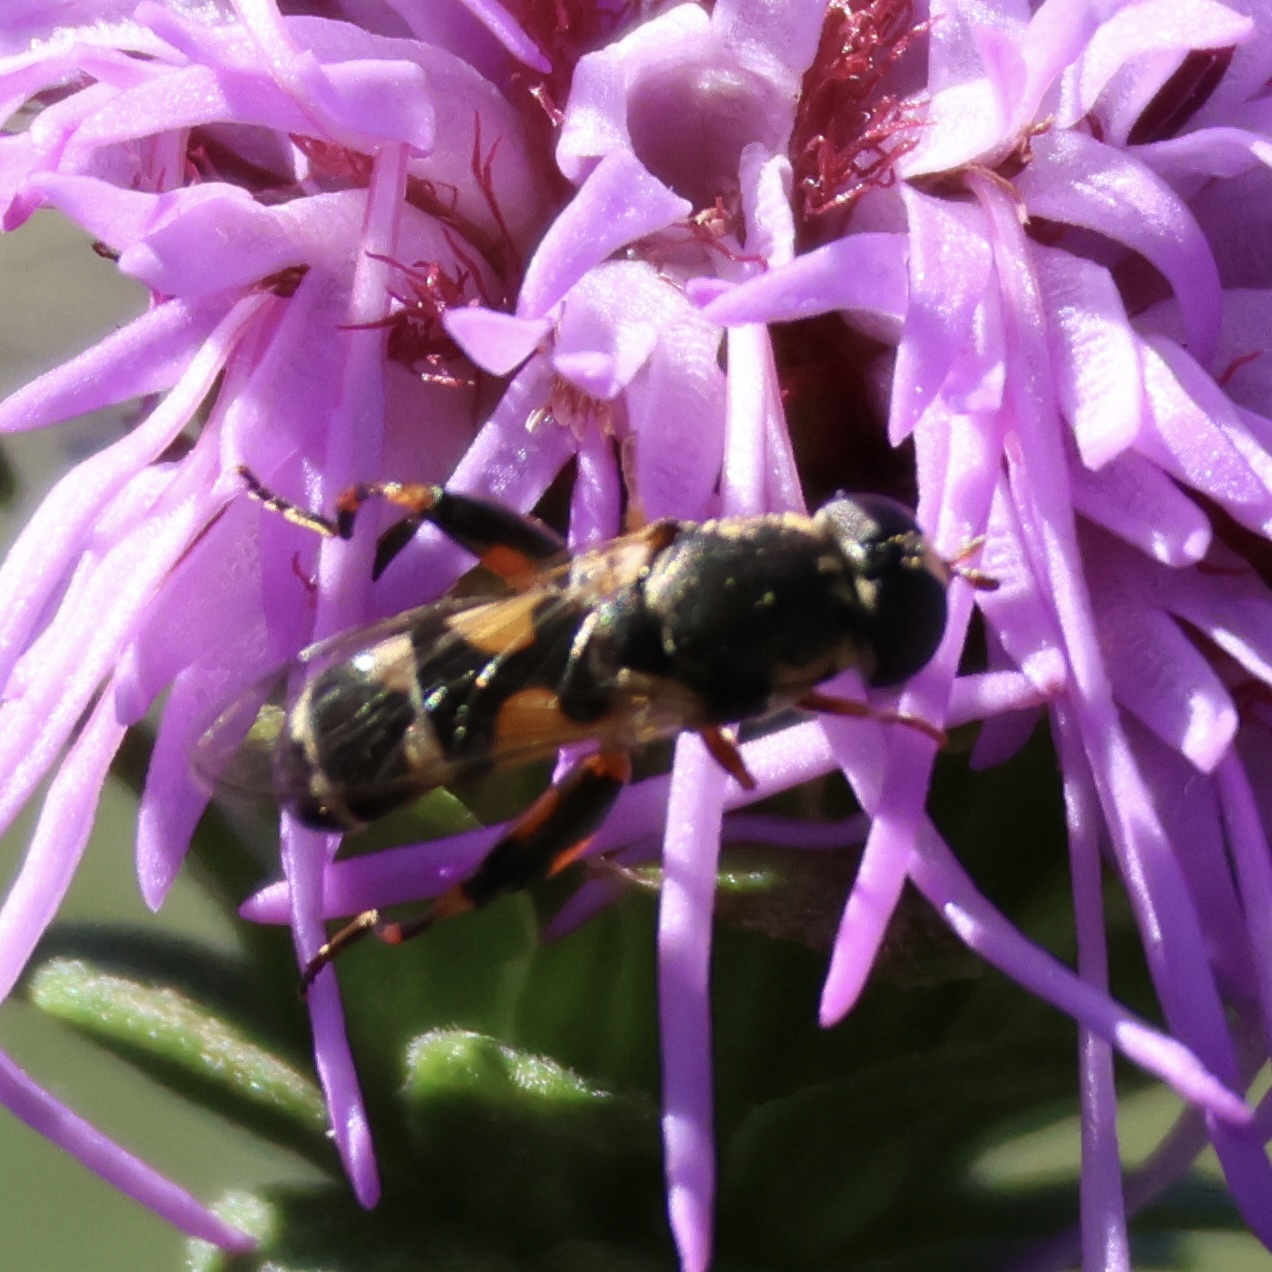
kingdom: Animalia
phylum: Arthropoda
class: Insecta
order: Diptera
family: Syrphidae
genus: Syritta
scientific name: Syritta pipiens
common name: Hover fly
